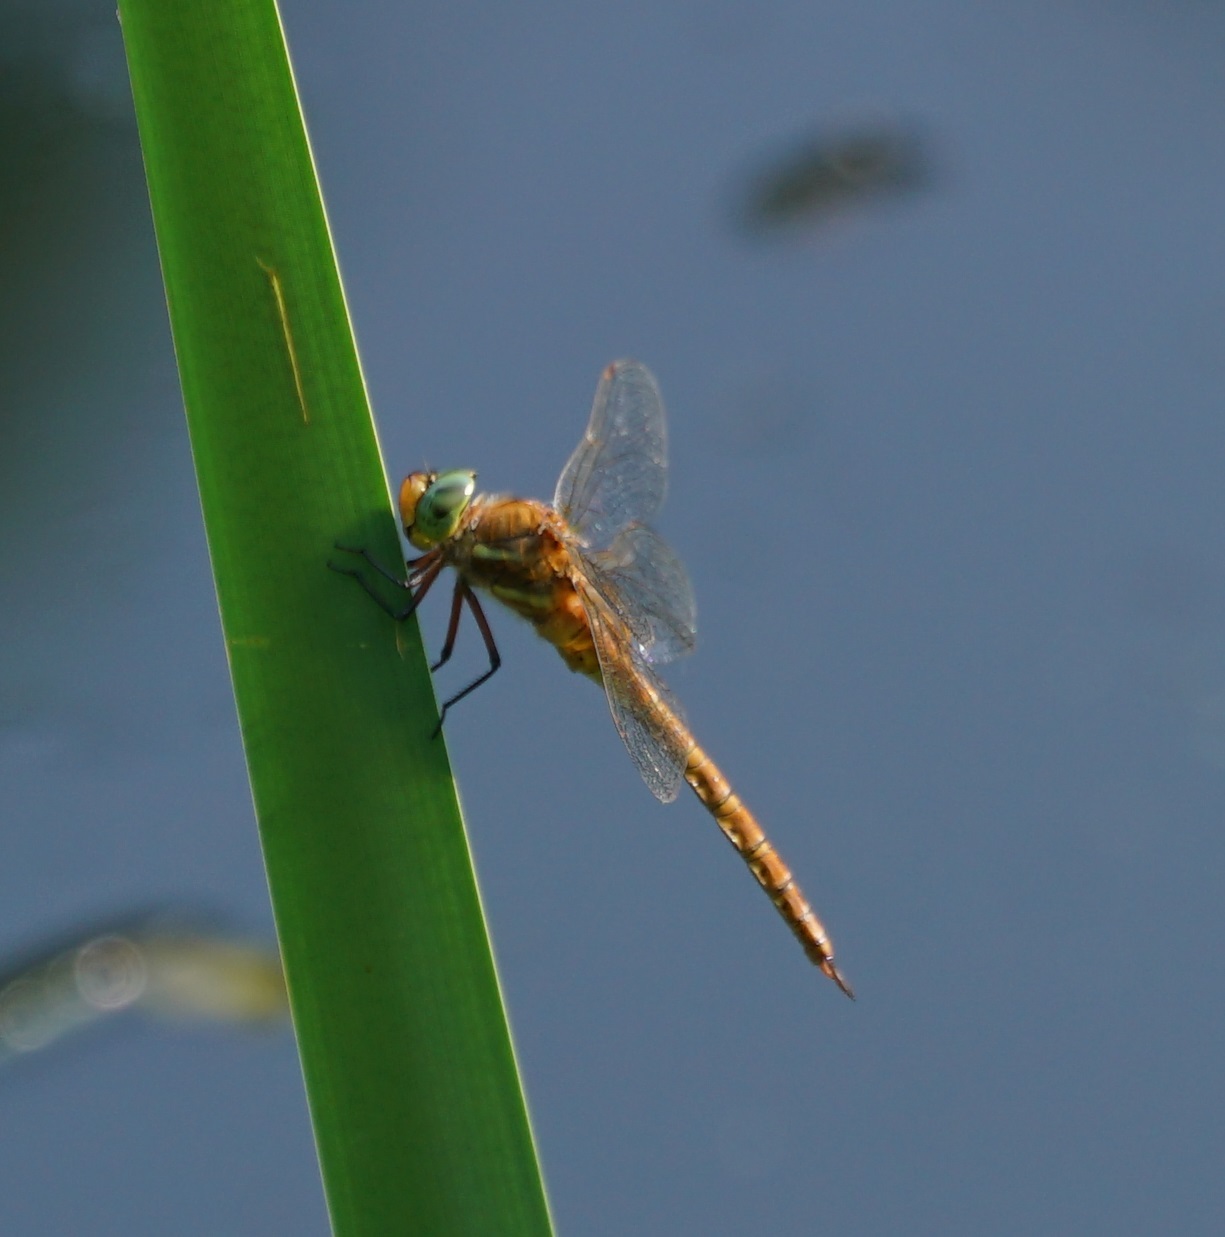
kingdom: Animalia
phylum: Arthropoda
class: Insecta
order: Odonata
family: Aeshnidae
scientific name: Aeshnidae
